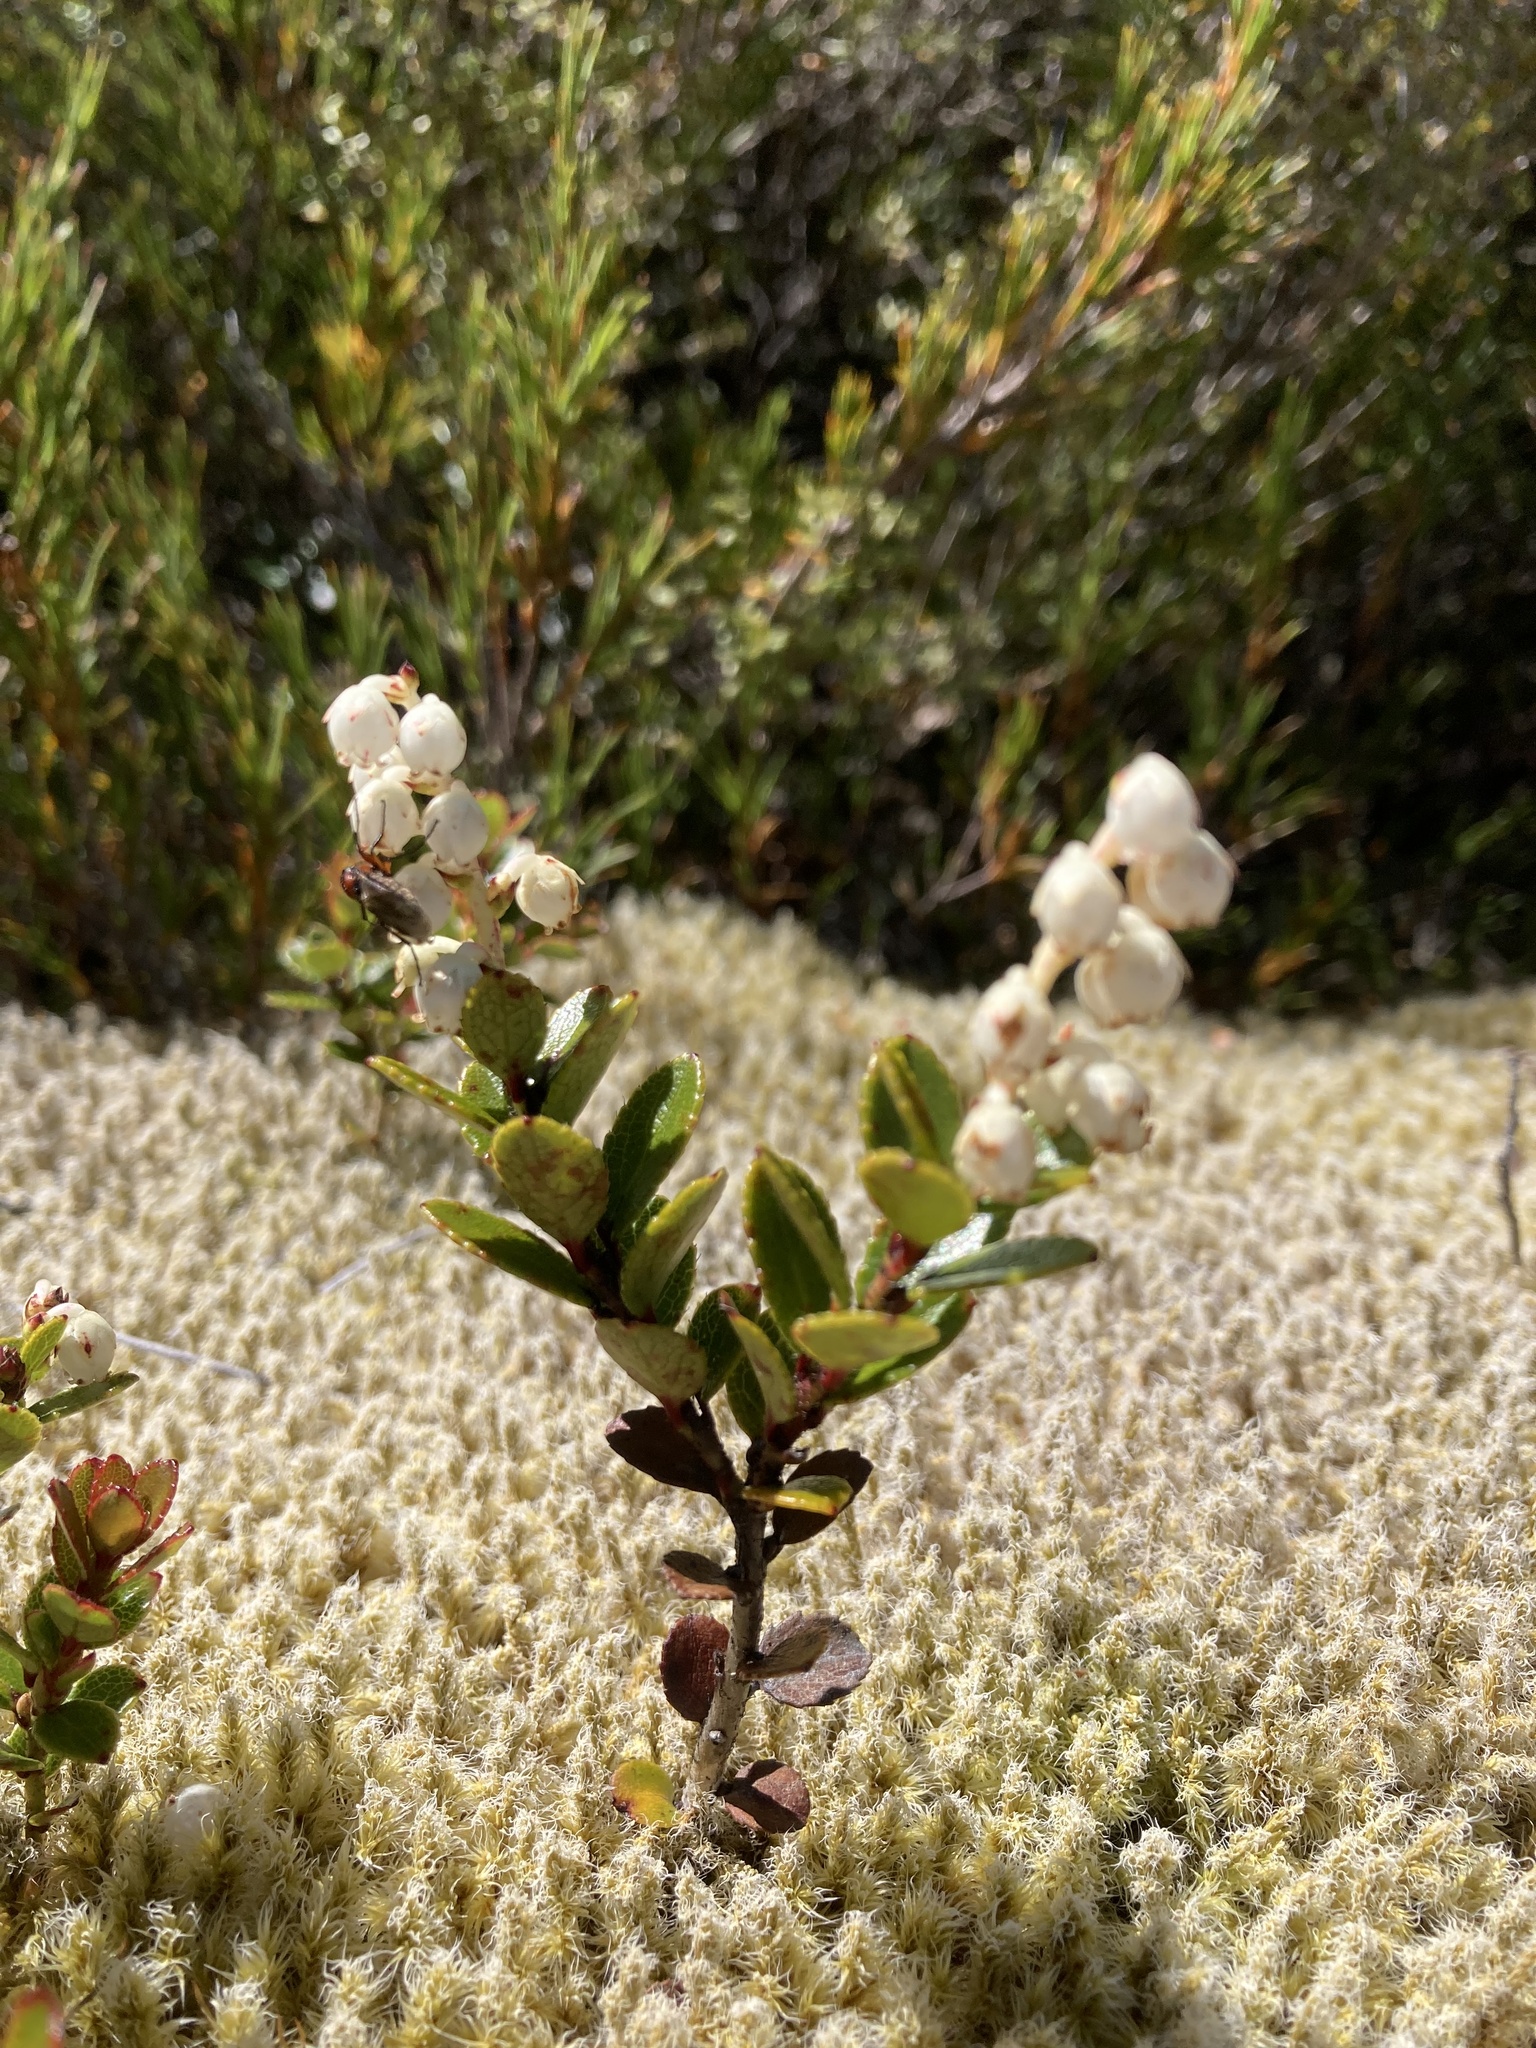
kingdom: Plantae
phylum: Tracheophyta
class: Magnoliopsida
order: Ericales
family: Ericaceae
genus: Gaultheria
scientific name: Gaultheria crassa
